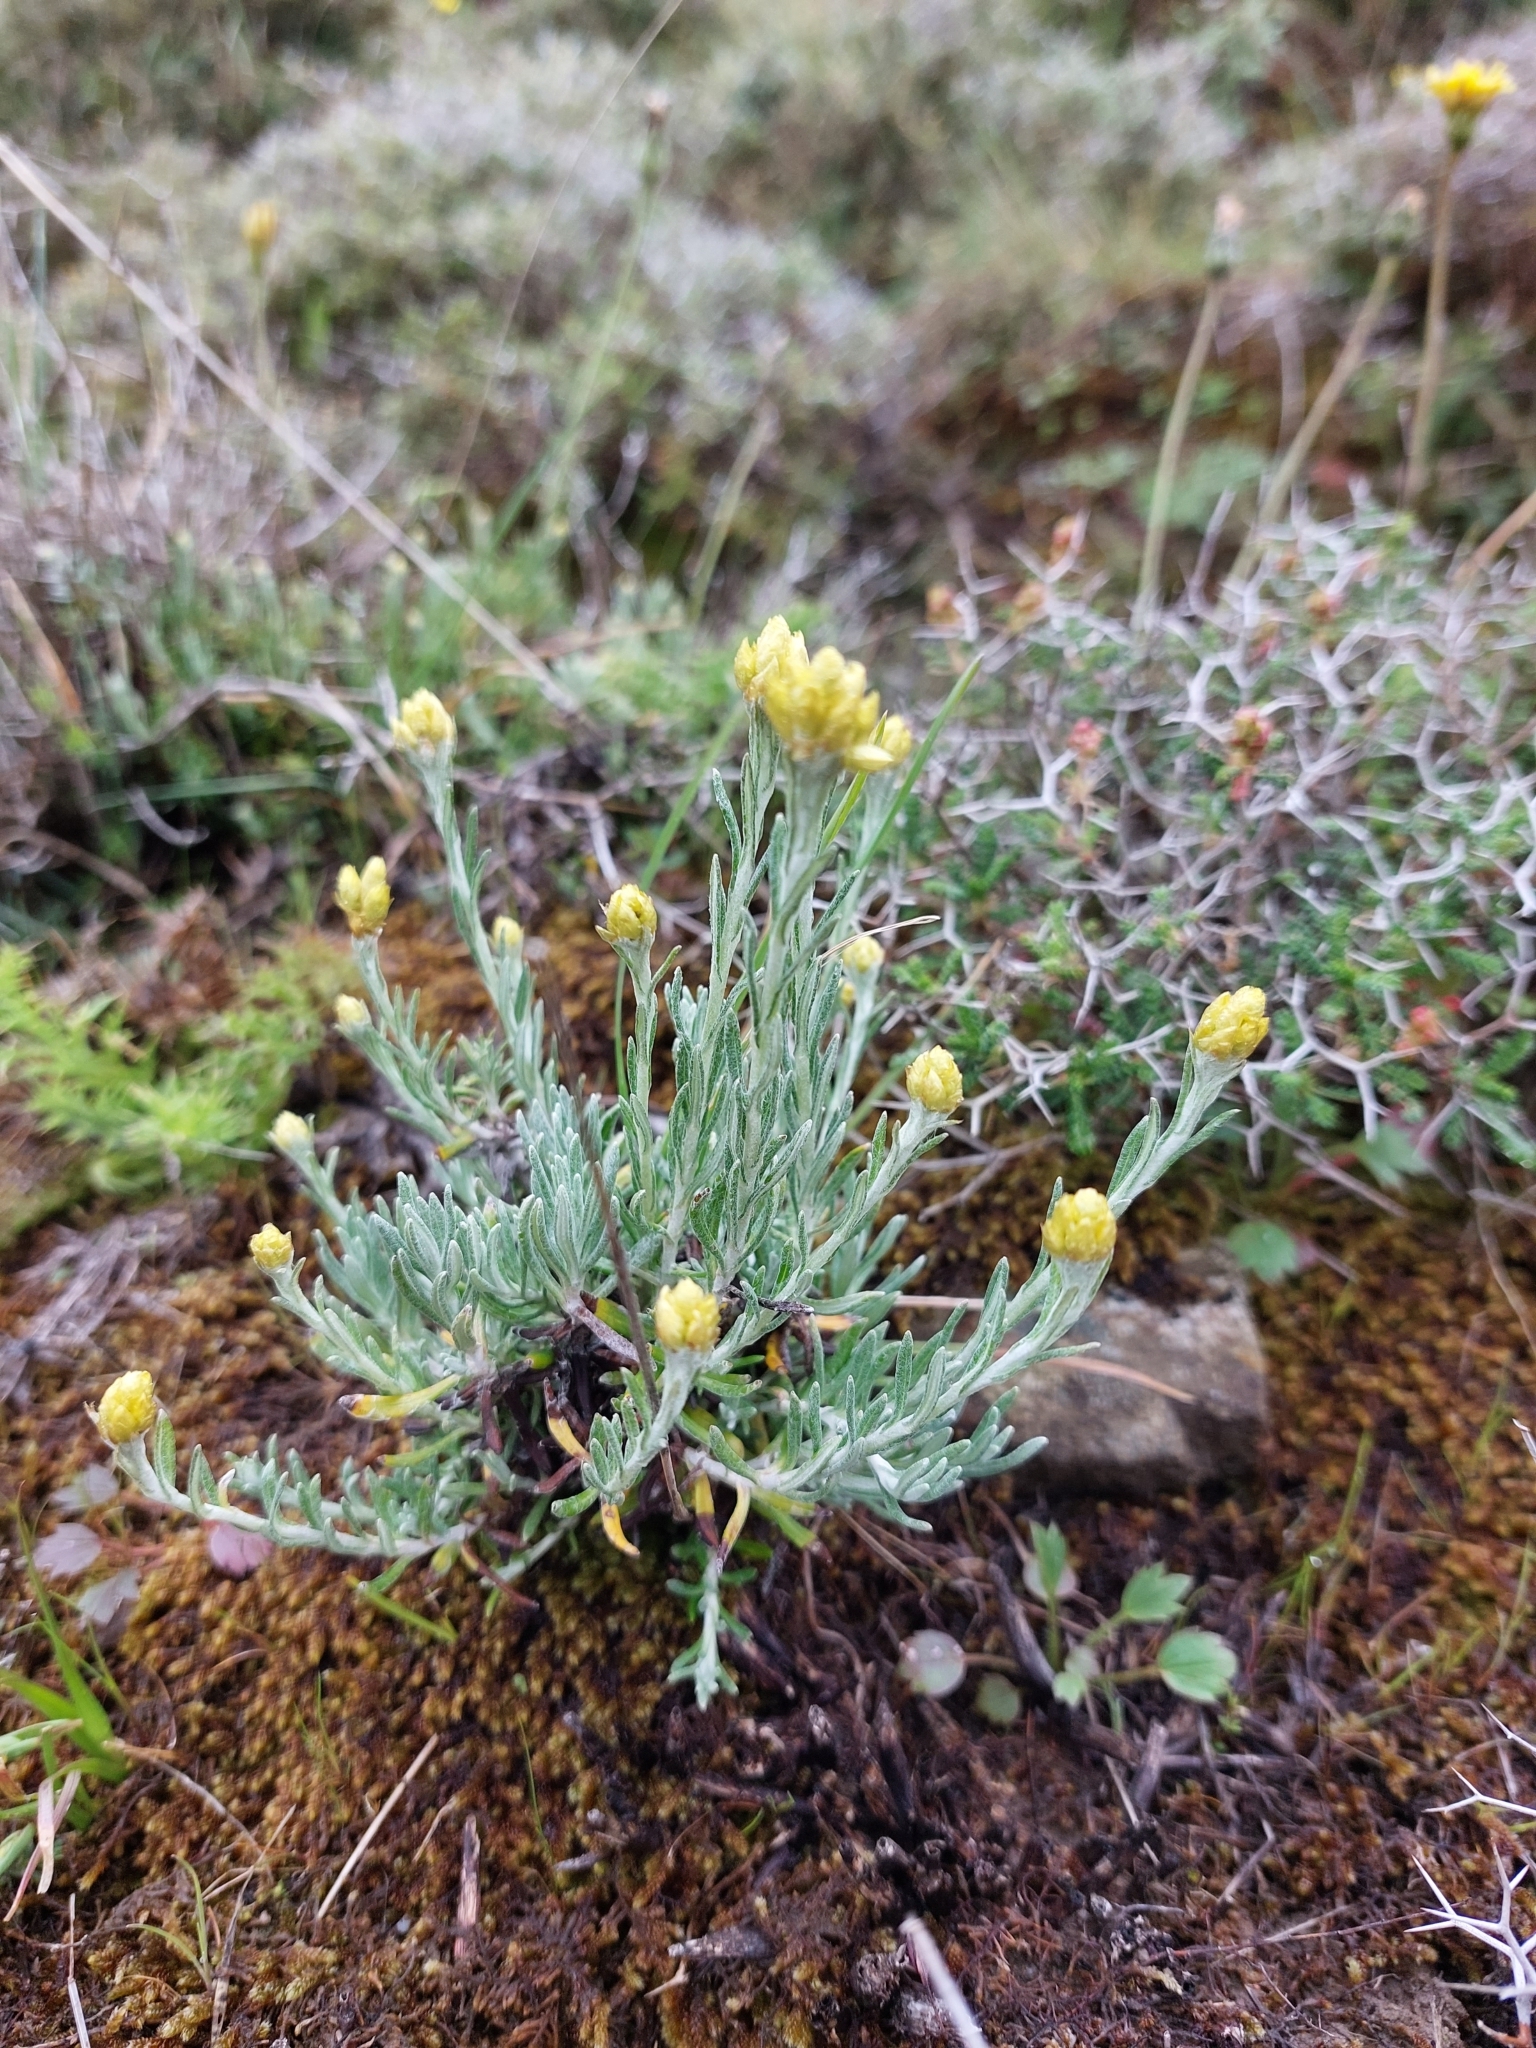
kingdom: Plantae
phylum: Tracheophyta
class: Magnoliopsida
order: Asterales
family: Asteraceae
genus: Helichrysum
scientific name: Helichrysum stoechas
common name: Goldilocks
